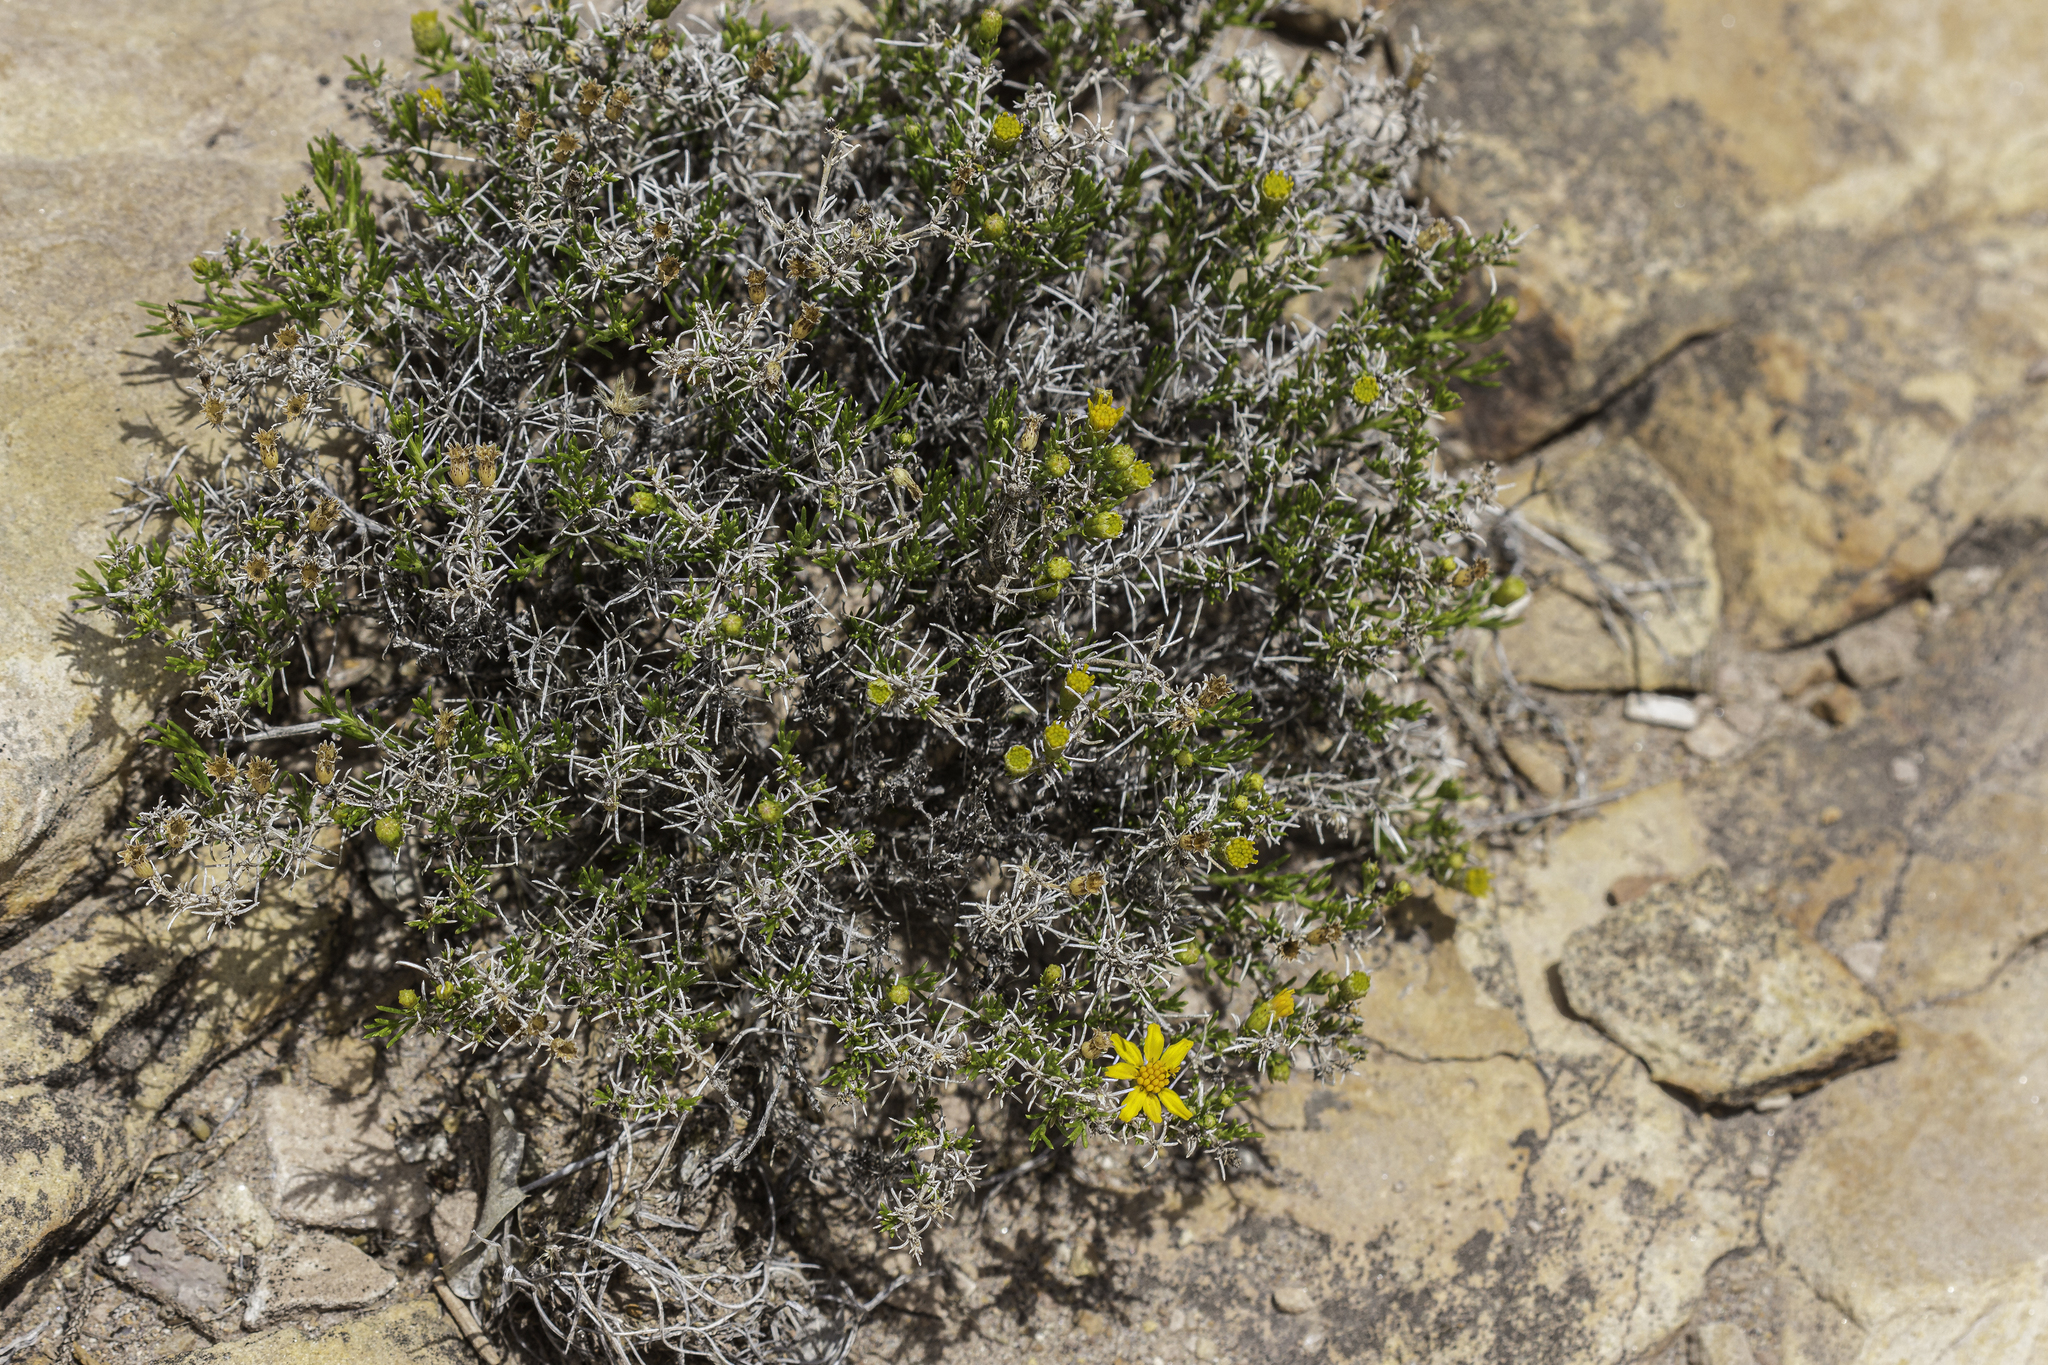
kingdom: Plantae
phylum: Tracheophyta
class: Magnoliopsida
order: Asterales
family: Asteraceae
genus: Thymophylla
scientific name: Thymophylla acerosa
